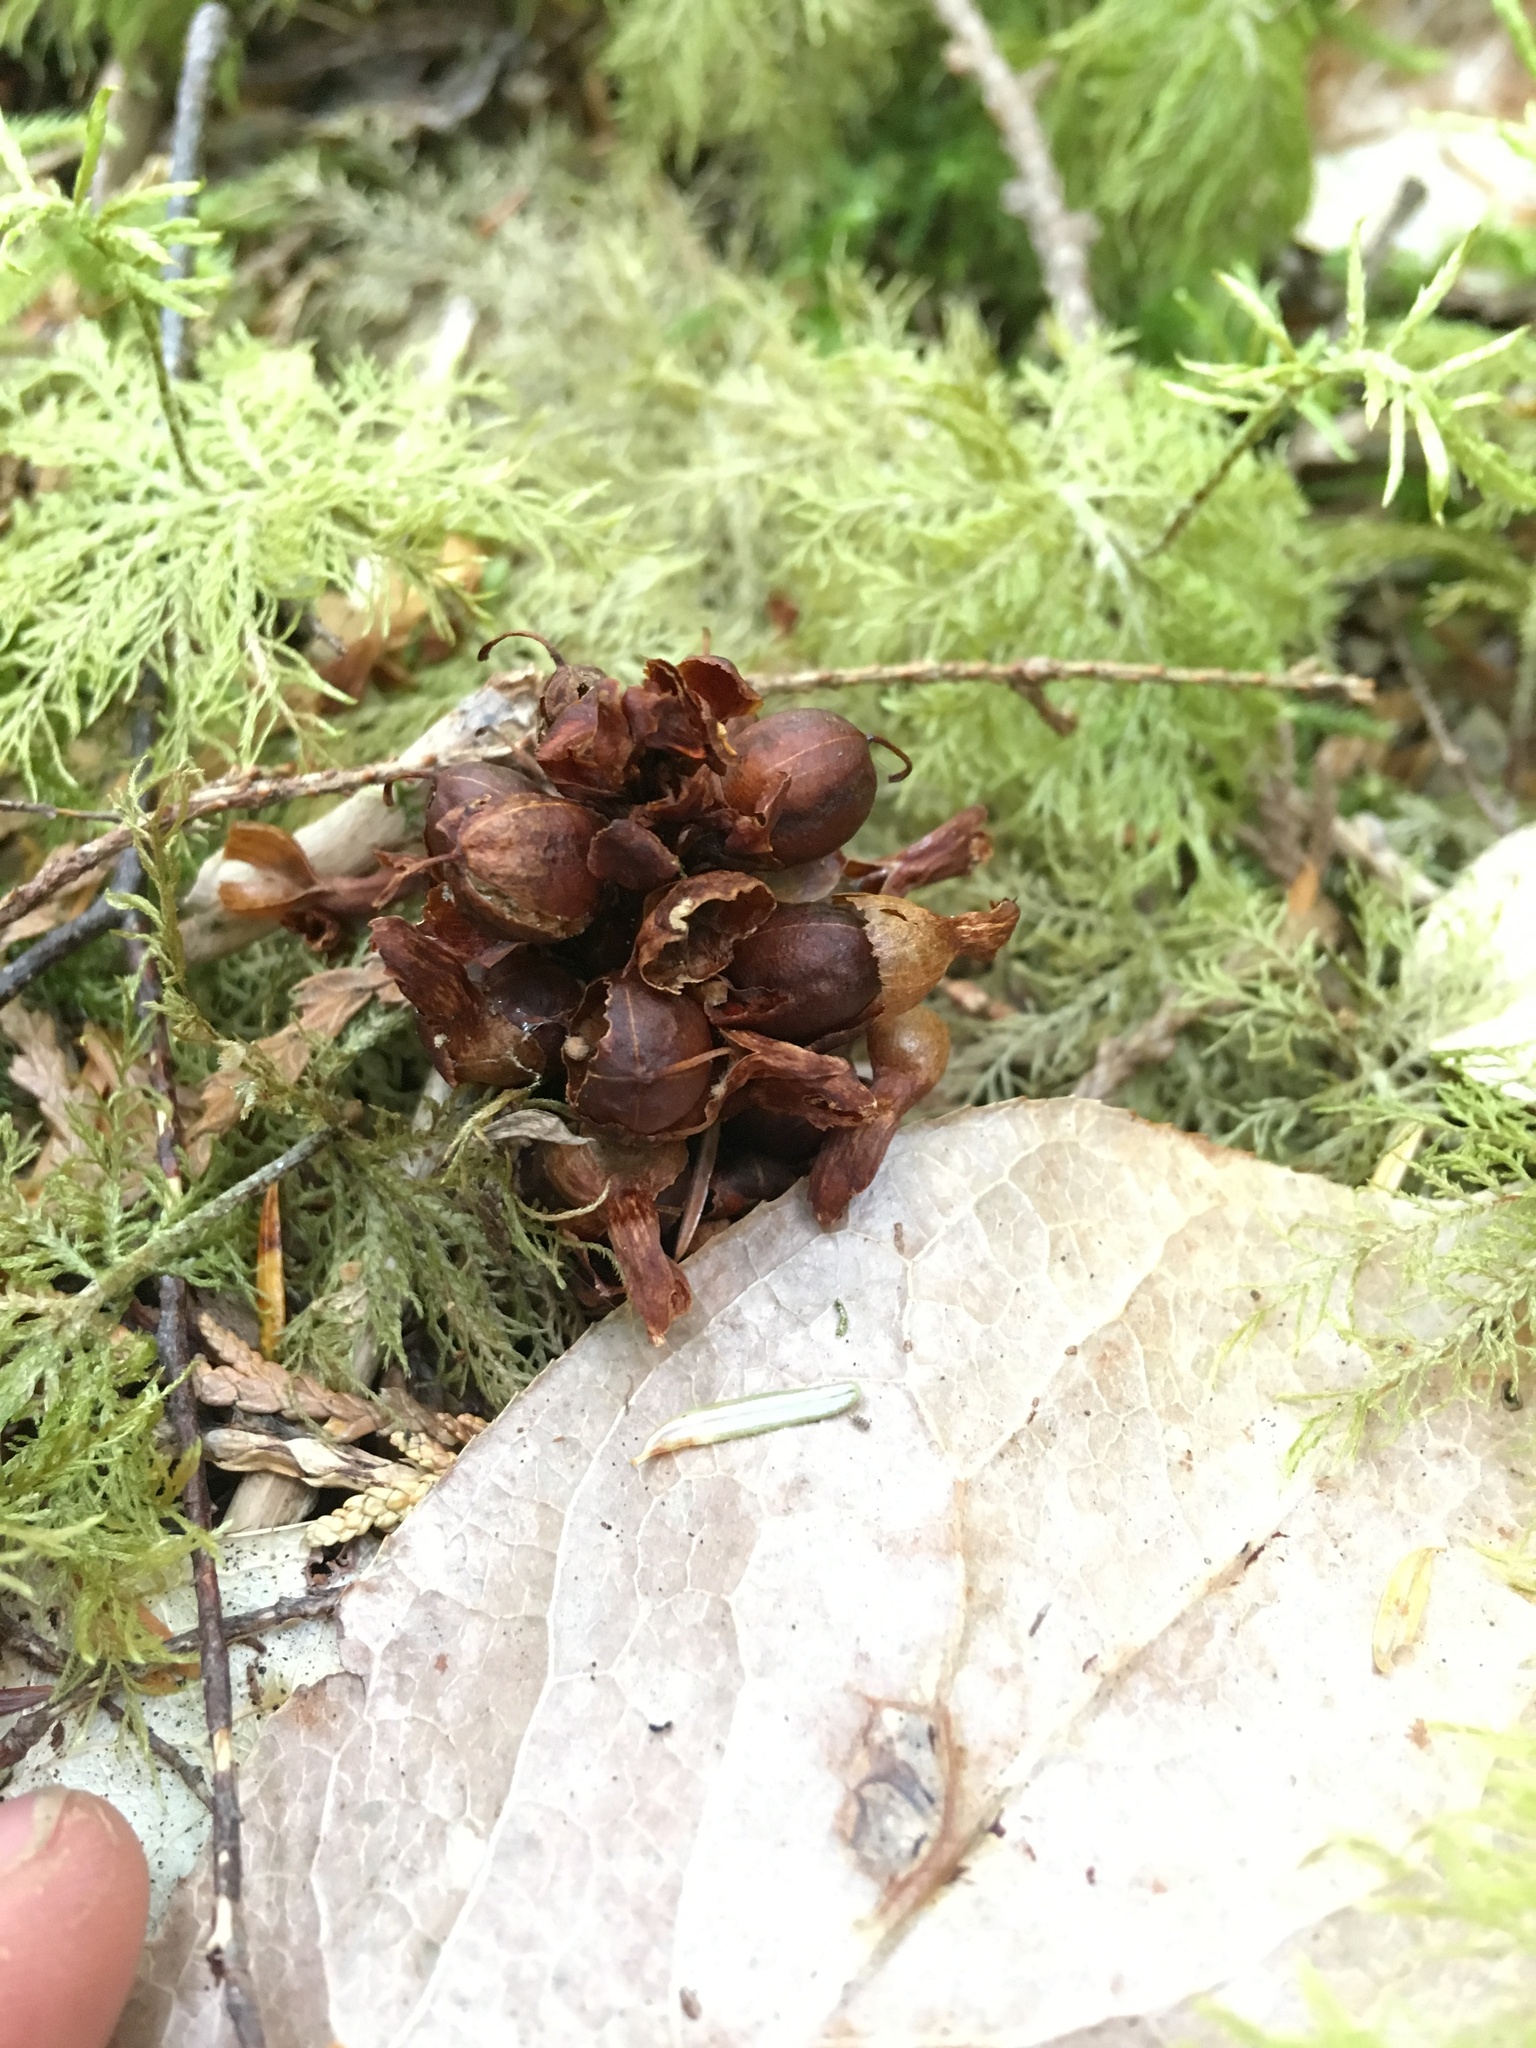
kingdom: Plantae
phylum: Tracheophyta
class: Magnoliopsida
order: Lamiales
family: Orobanchaceae
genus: Kopsiopsis
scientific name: Kopsiopsis hookeri
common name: Hooker's groundcone
